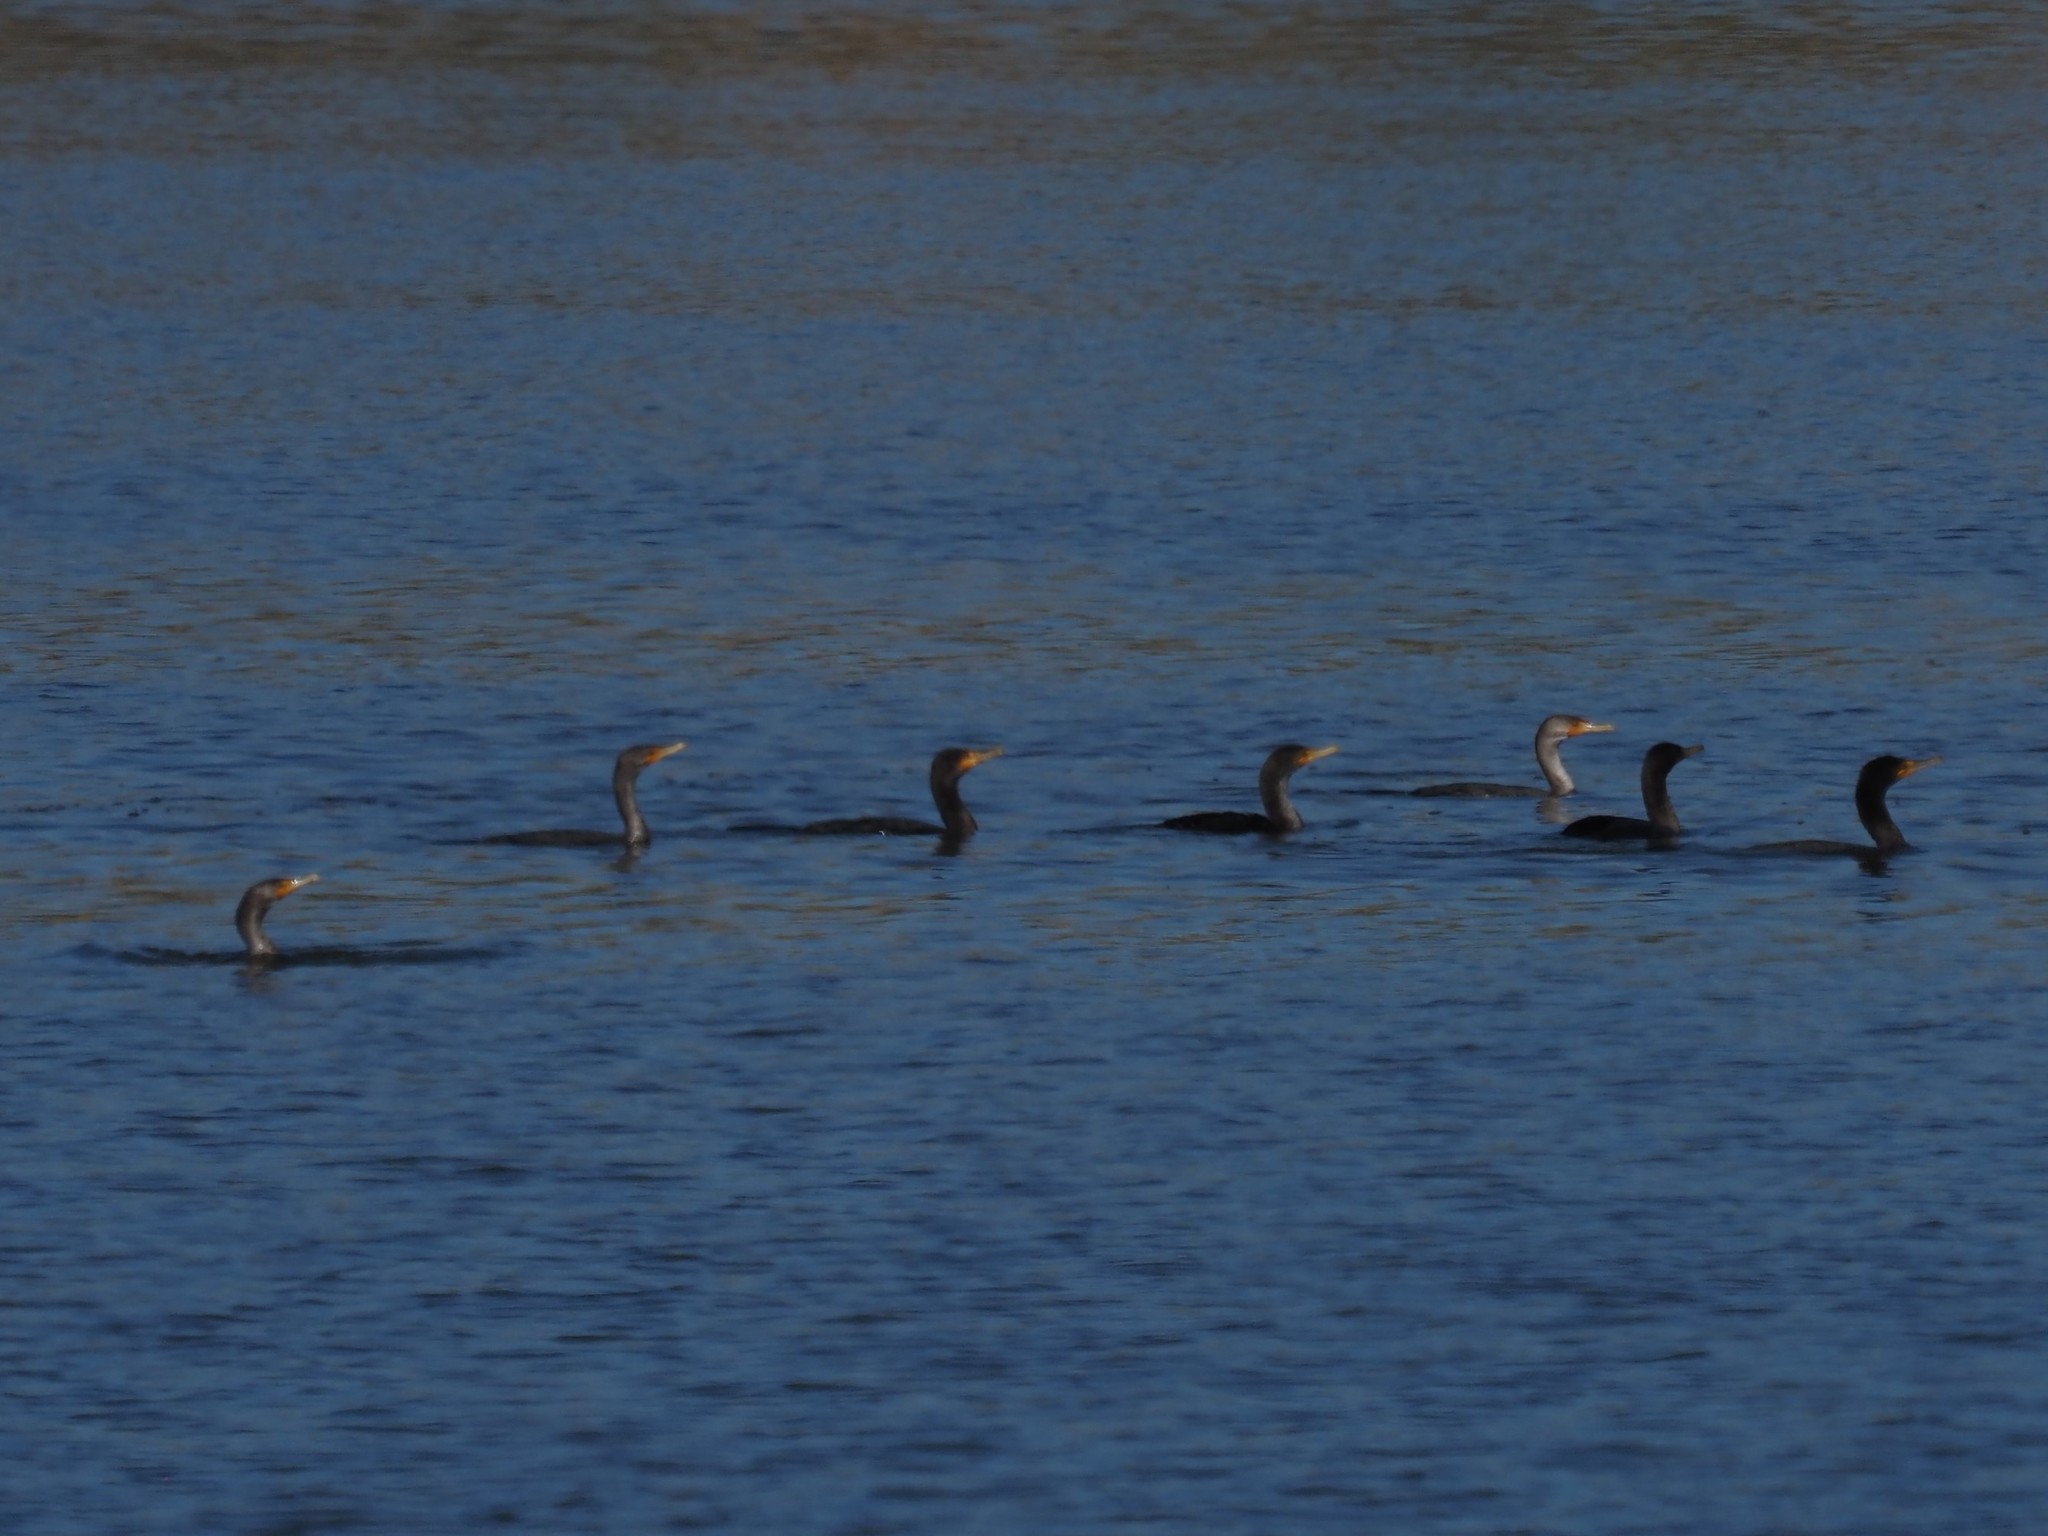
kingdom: Animalia
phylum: Chordata
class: Aves
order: Suliformes
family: Phalacrocoracidae
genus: Phalacrocorax
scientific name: Phalacrocorax auritus
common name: Double-crested cormorant
